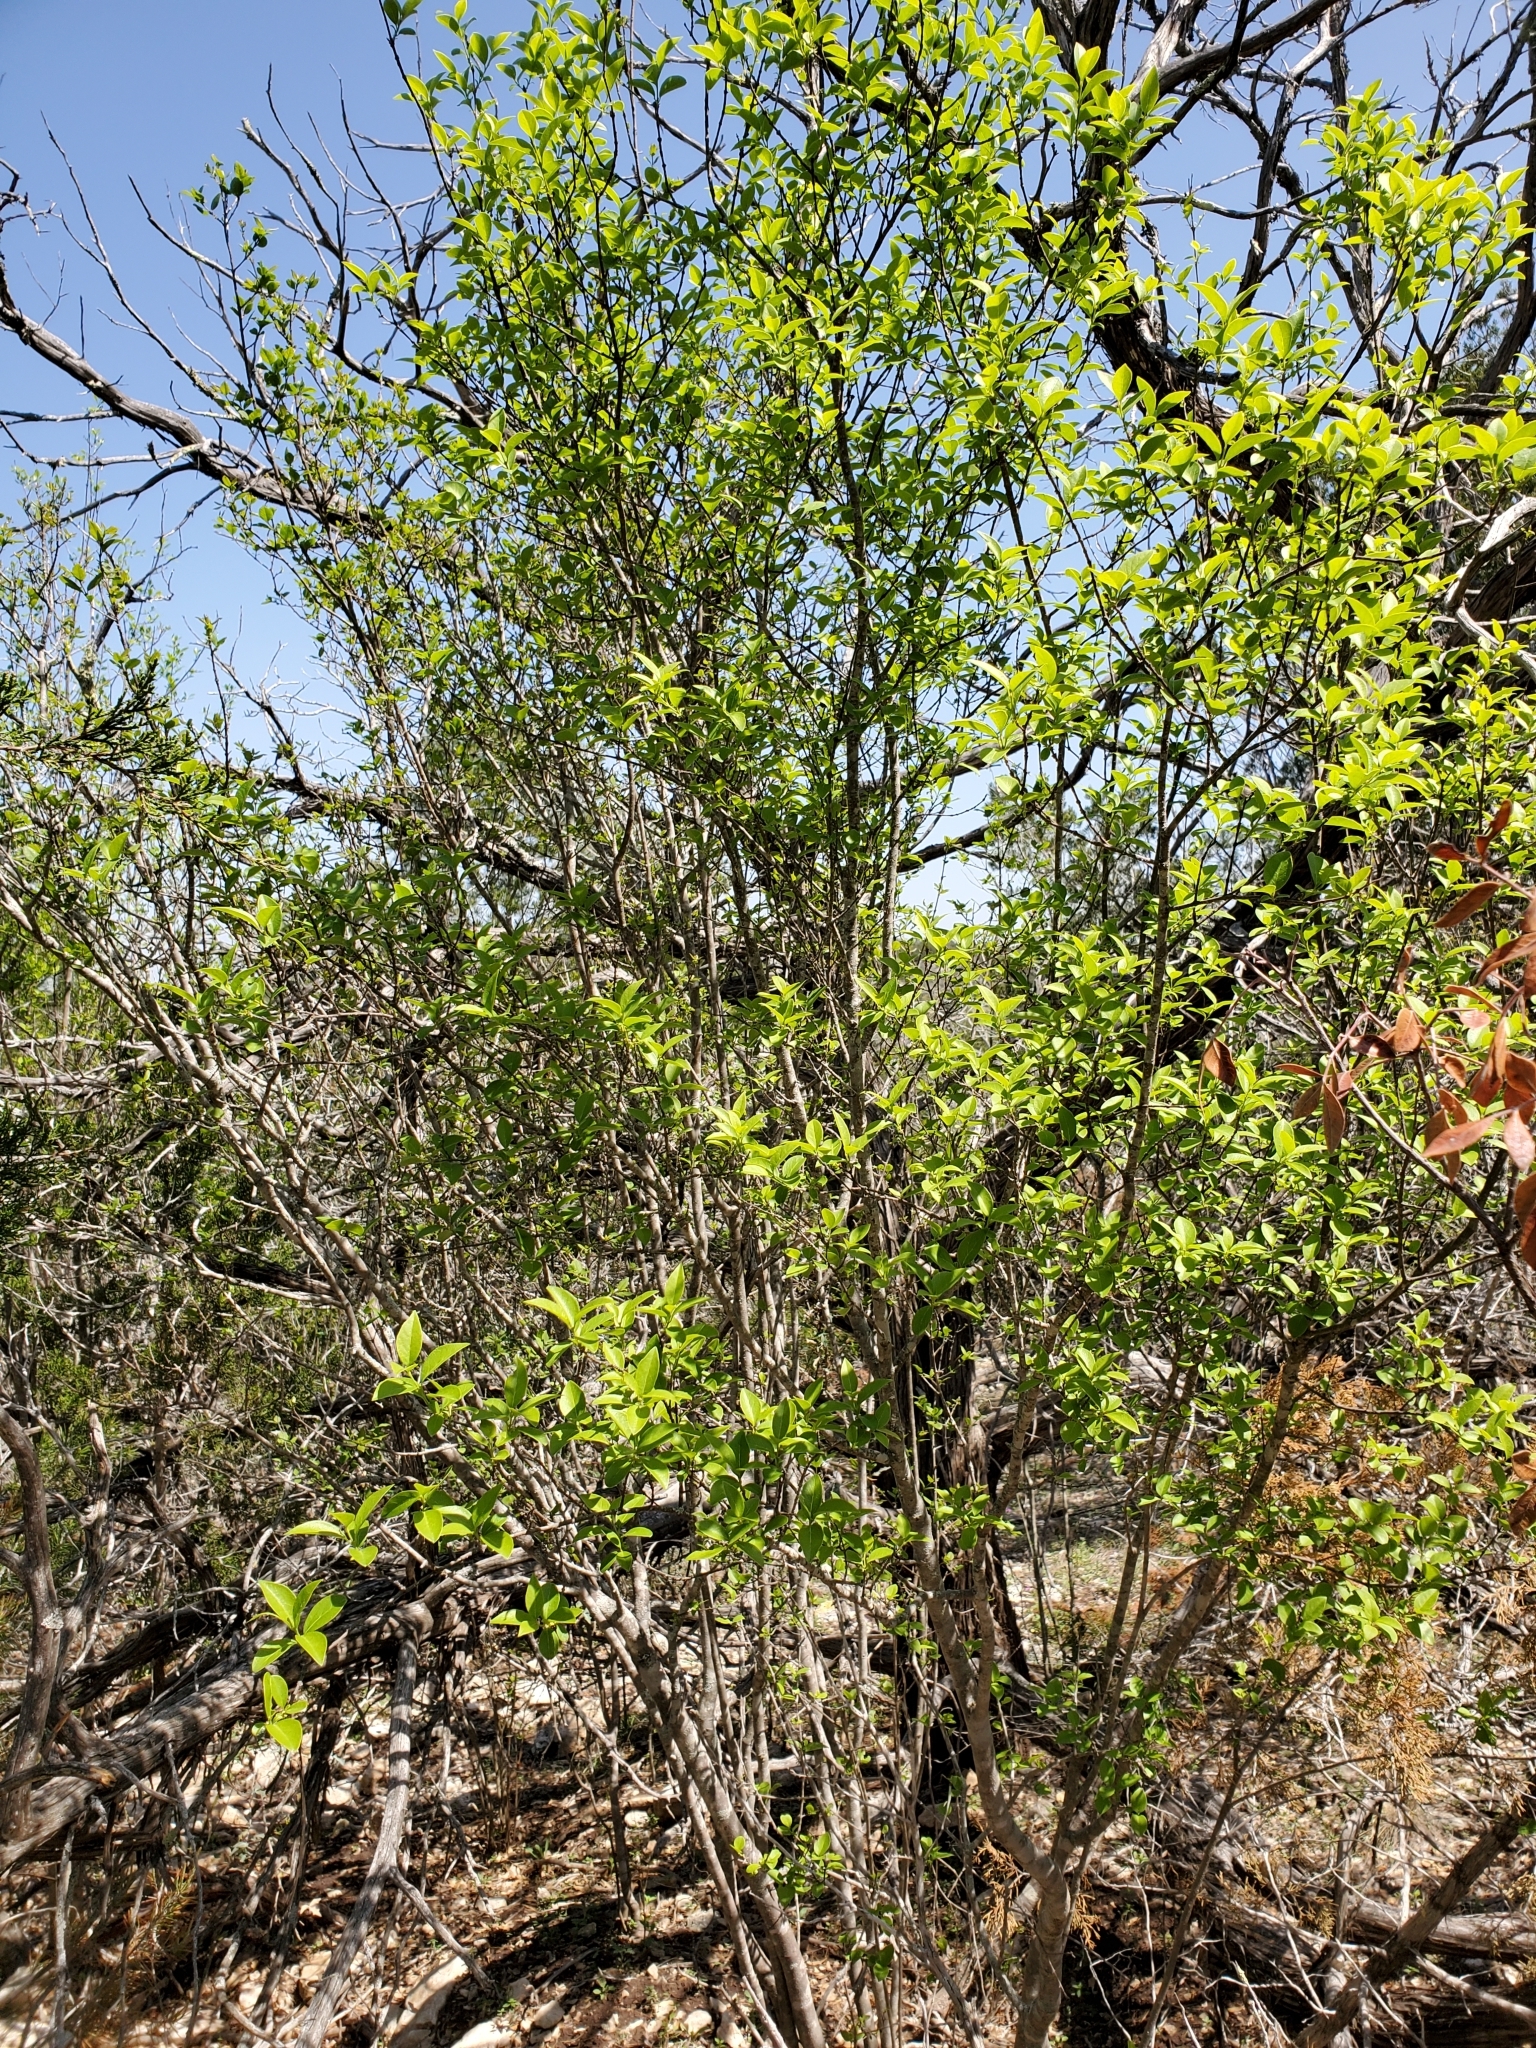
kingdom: Plantae
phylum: Tracheophyta
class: Magnoliopsida
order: Lamiales
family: Oleaceae
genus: Forestiera
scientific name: Forestiera reticulata
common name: Netleaf swamp-privet
